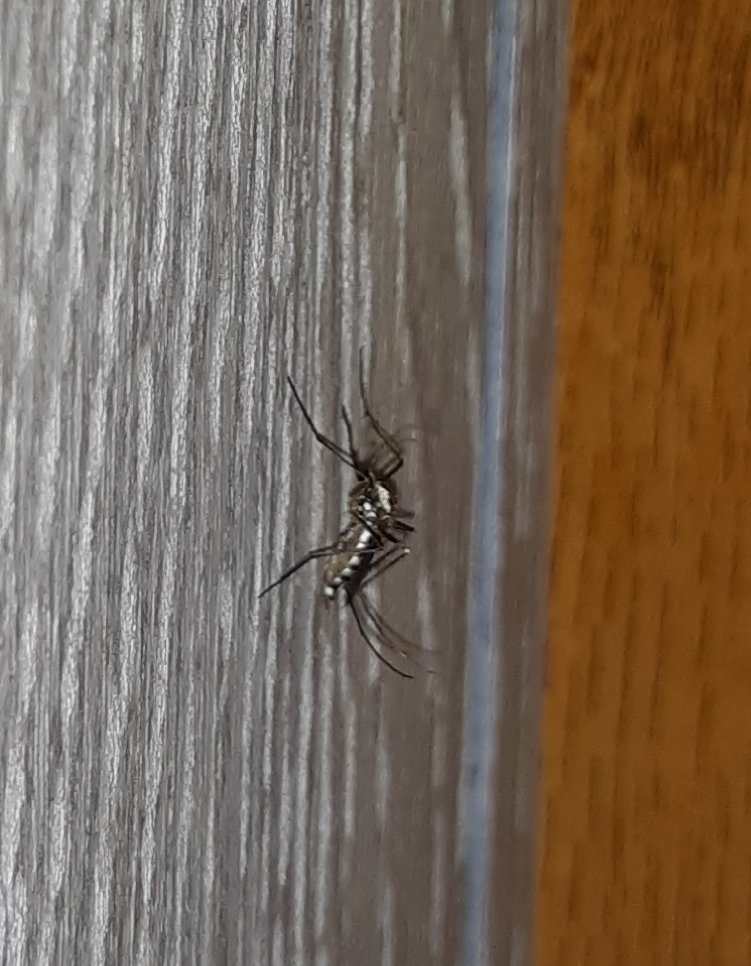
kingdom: Animalia
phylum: Arthropoda
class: Insecta
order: Diptera
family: Culicidae
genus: Aedes
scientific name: Aedes triseriatus
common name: Eastern treehole mosquito
